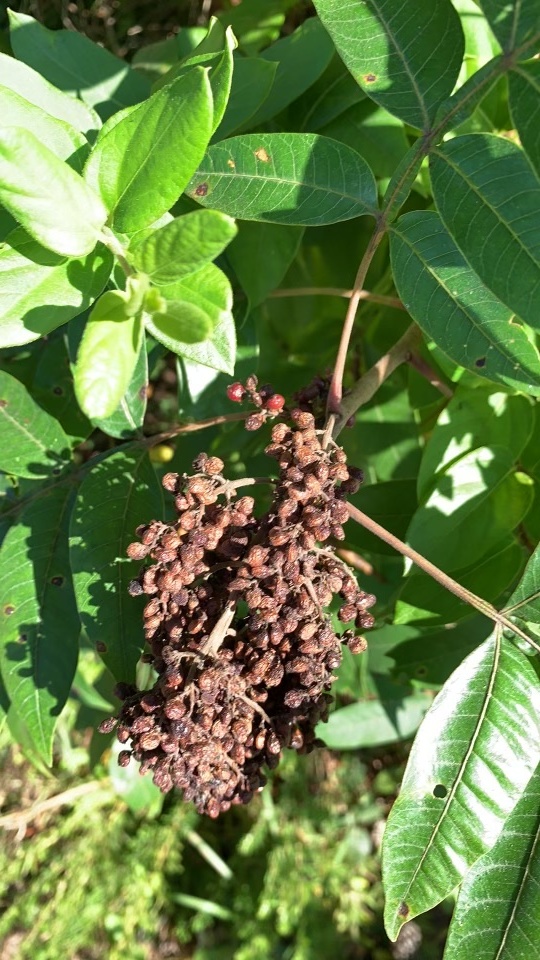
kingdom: Plantae
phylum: Tracheophyta
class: Magnoliopsida
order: Sapindales
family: Anacardiaceae
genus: Rhus
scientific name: Rhus copallina
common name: Shining sumac
